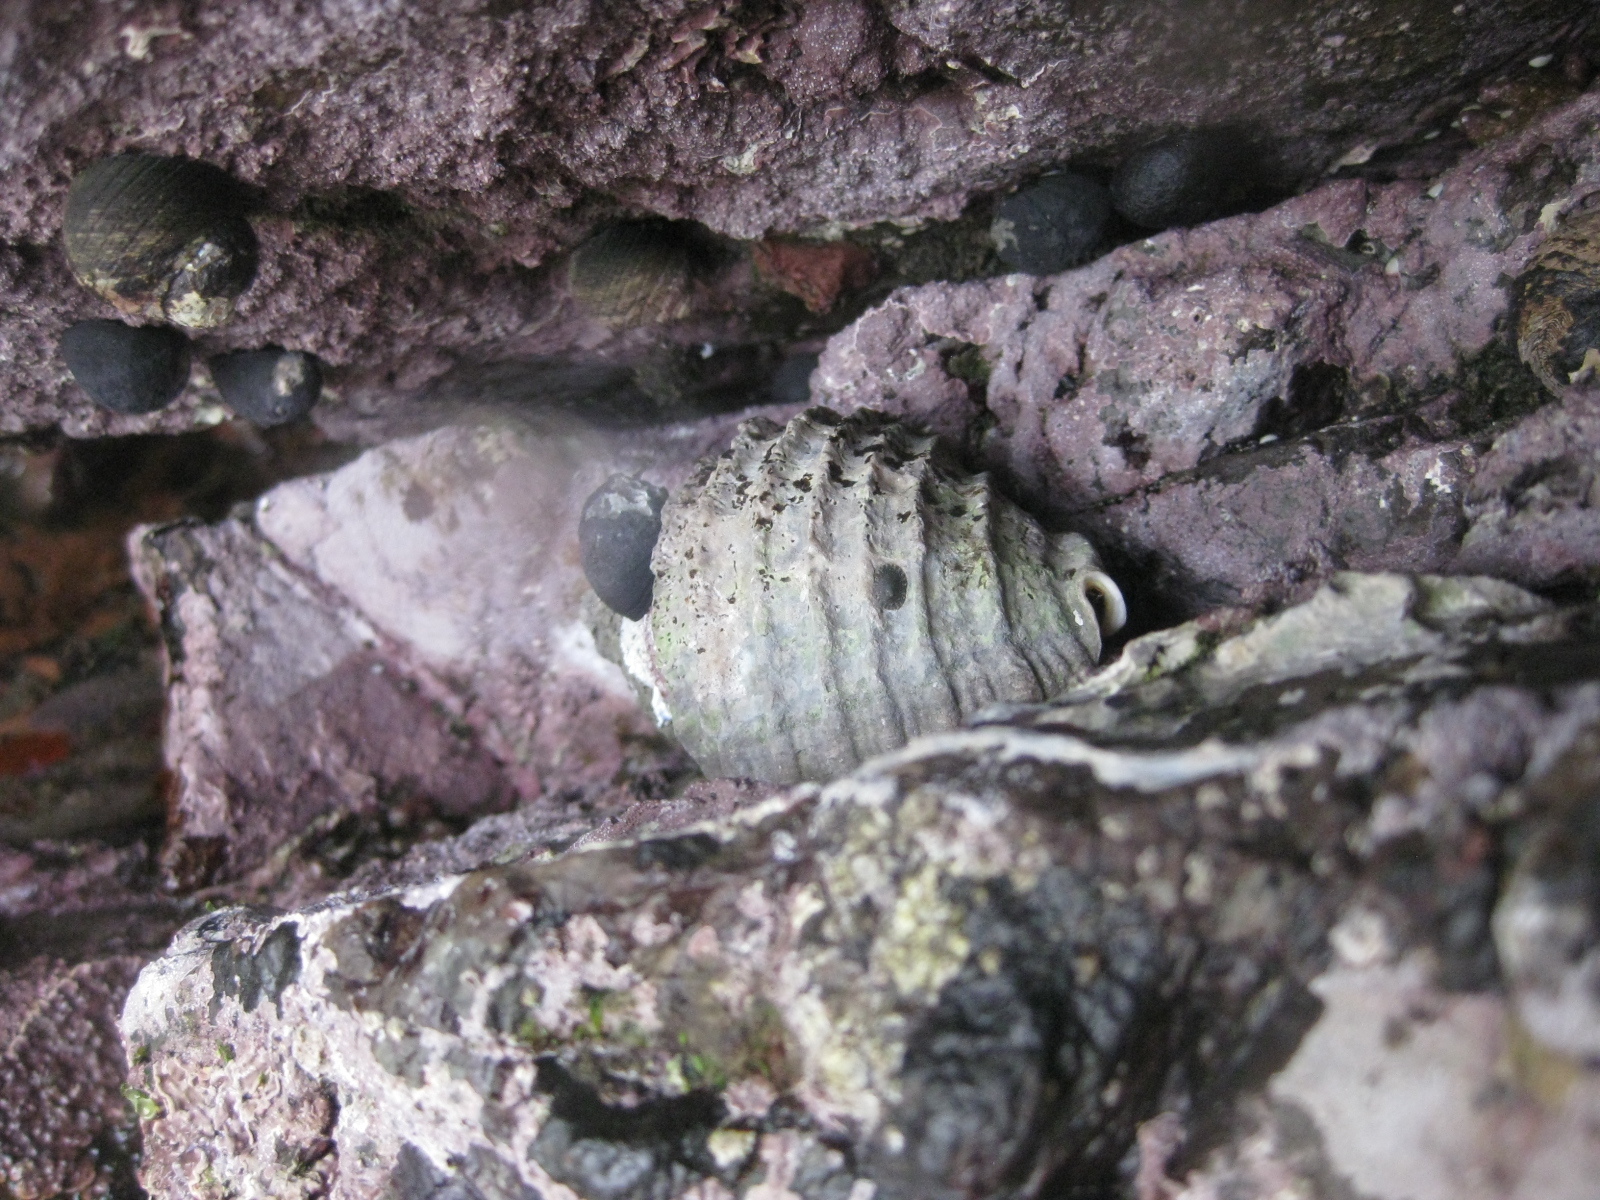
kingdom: Animalia
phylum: Mollusca
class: Gastropoda
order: Neogastropoda
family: Muricidae
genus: Dicathais
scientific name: Dicathais orbita
